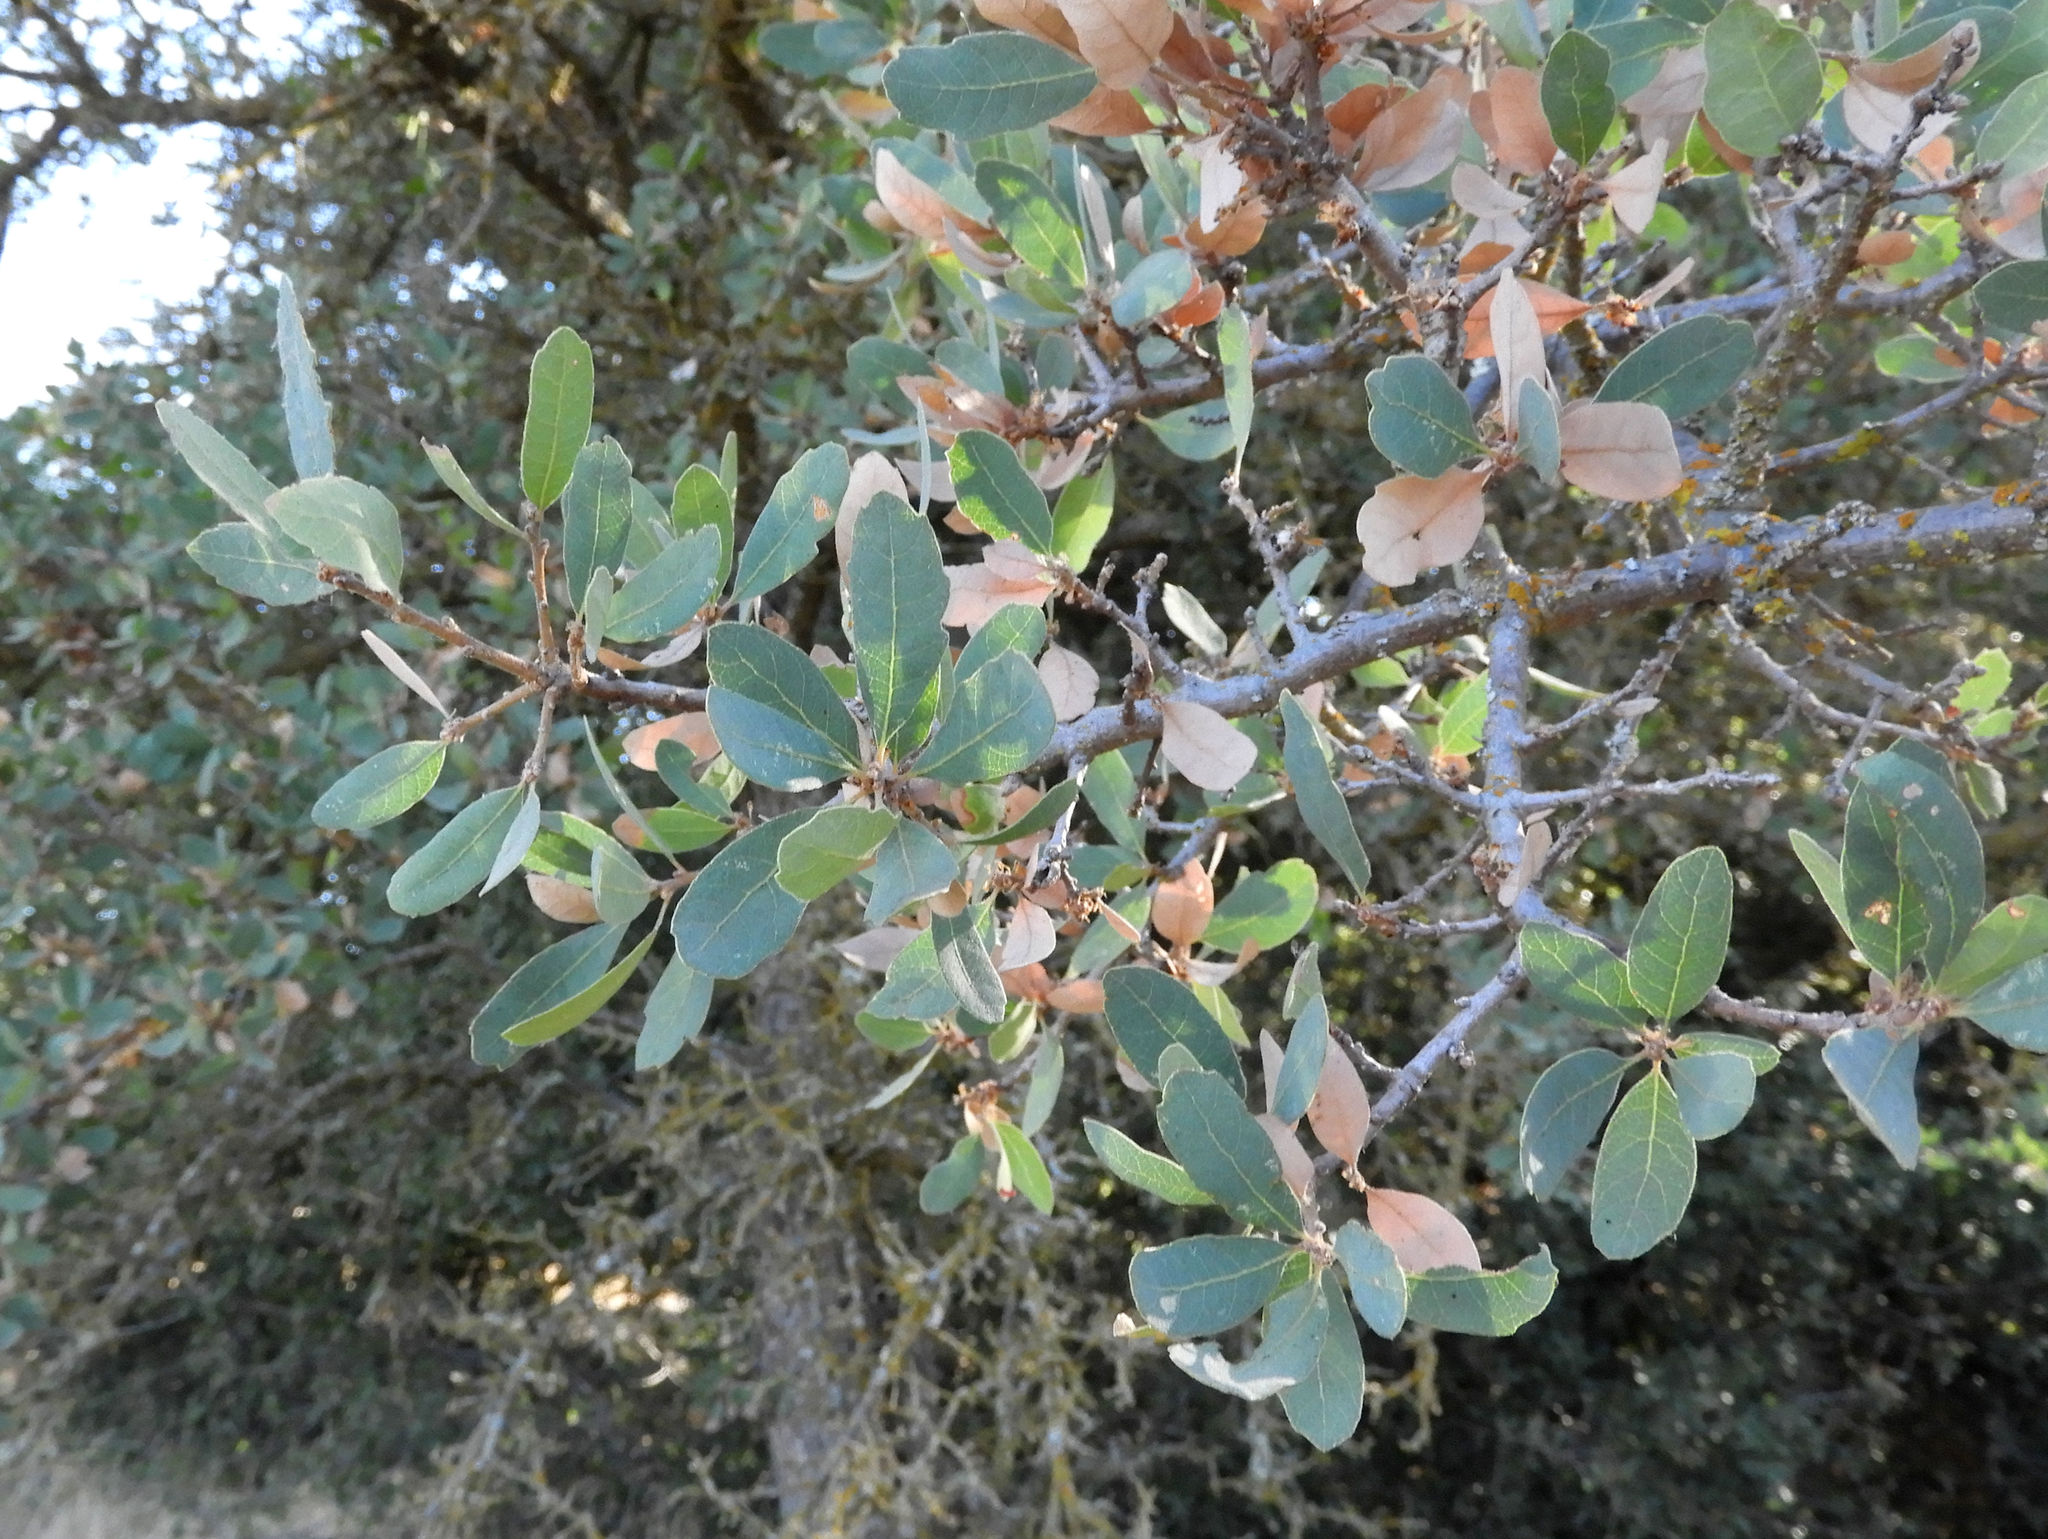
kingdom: Plantae
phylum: Tracheophyta
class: Magnoliopsida
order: Fagales
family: Fagaceae
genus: Quercus
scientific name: Quercus douglasii
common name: Blue oak
